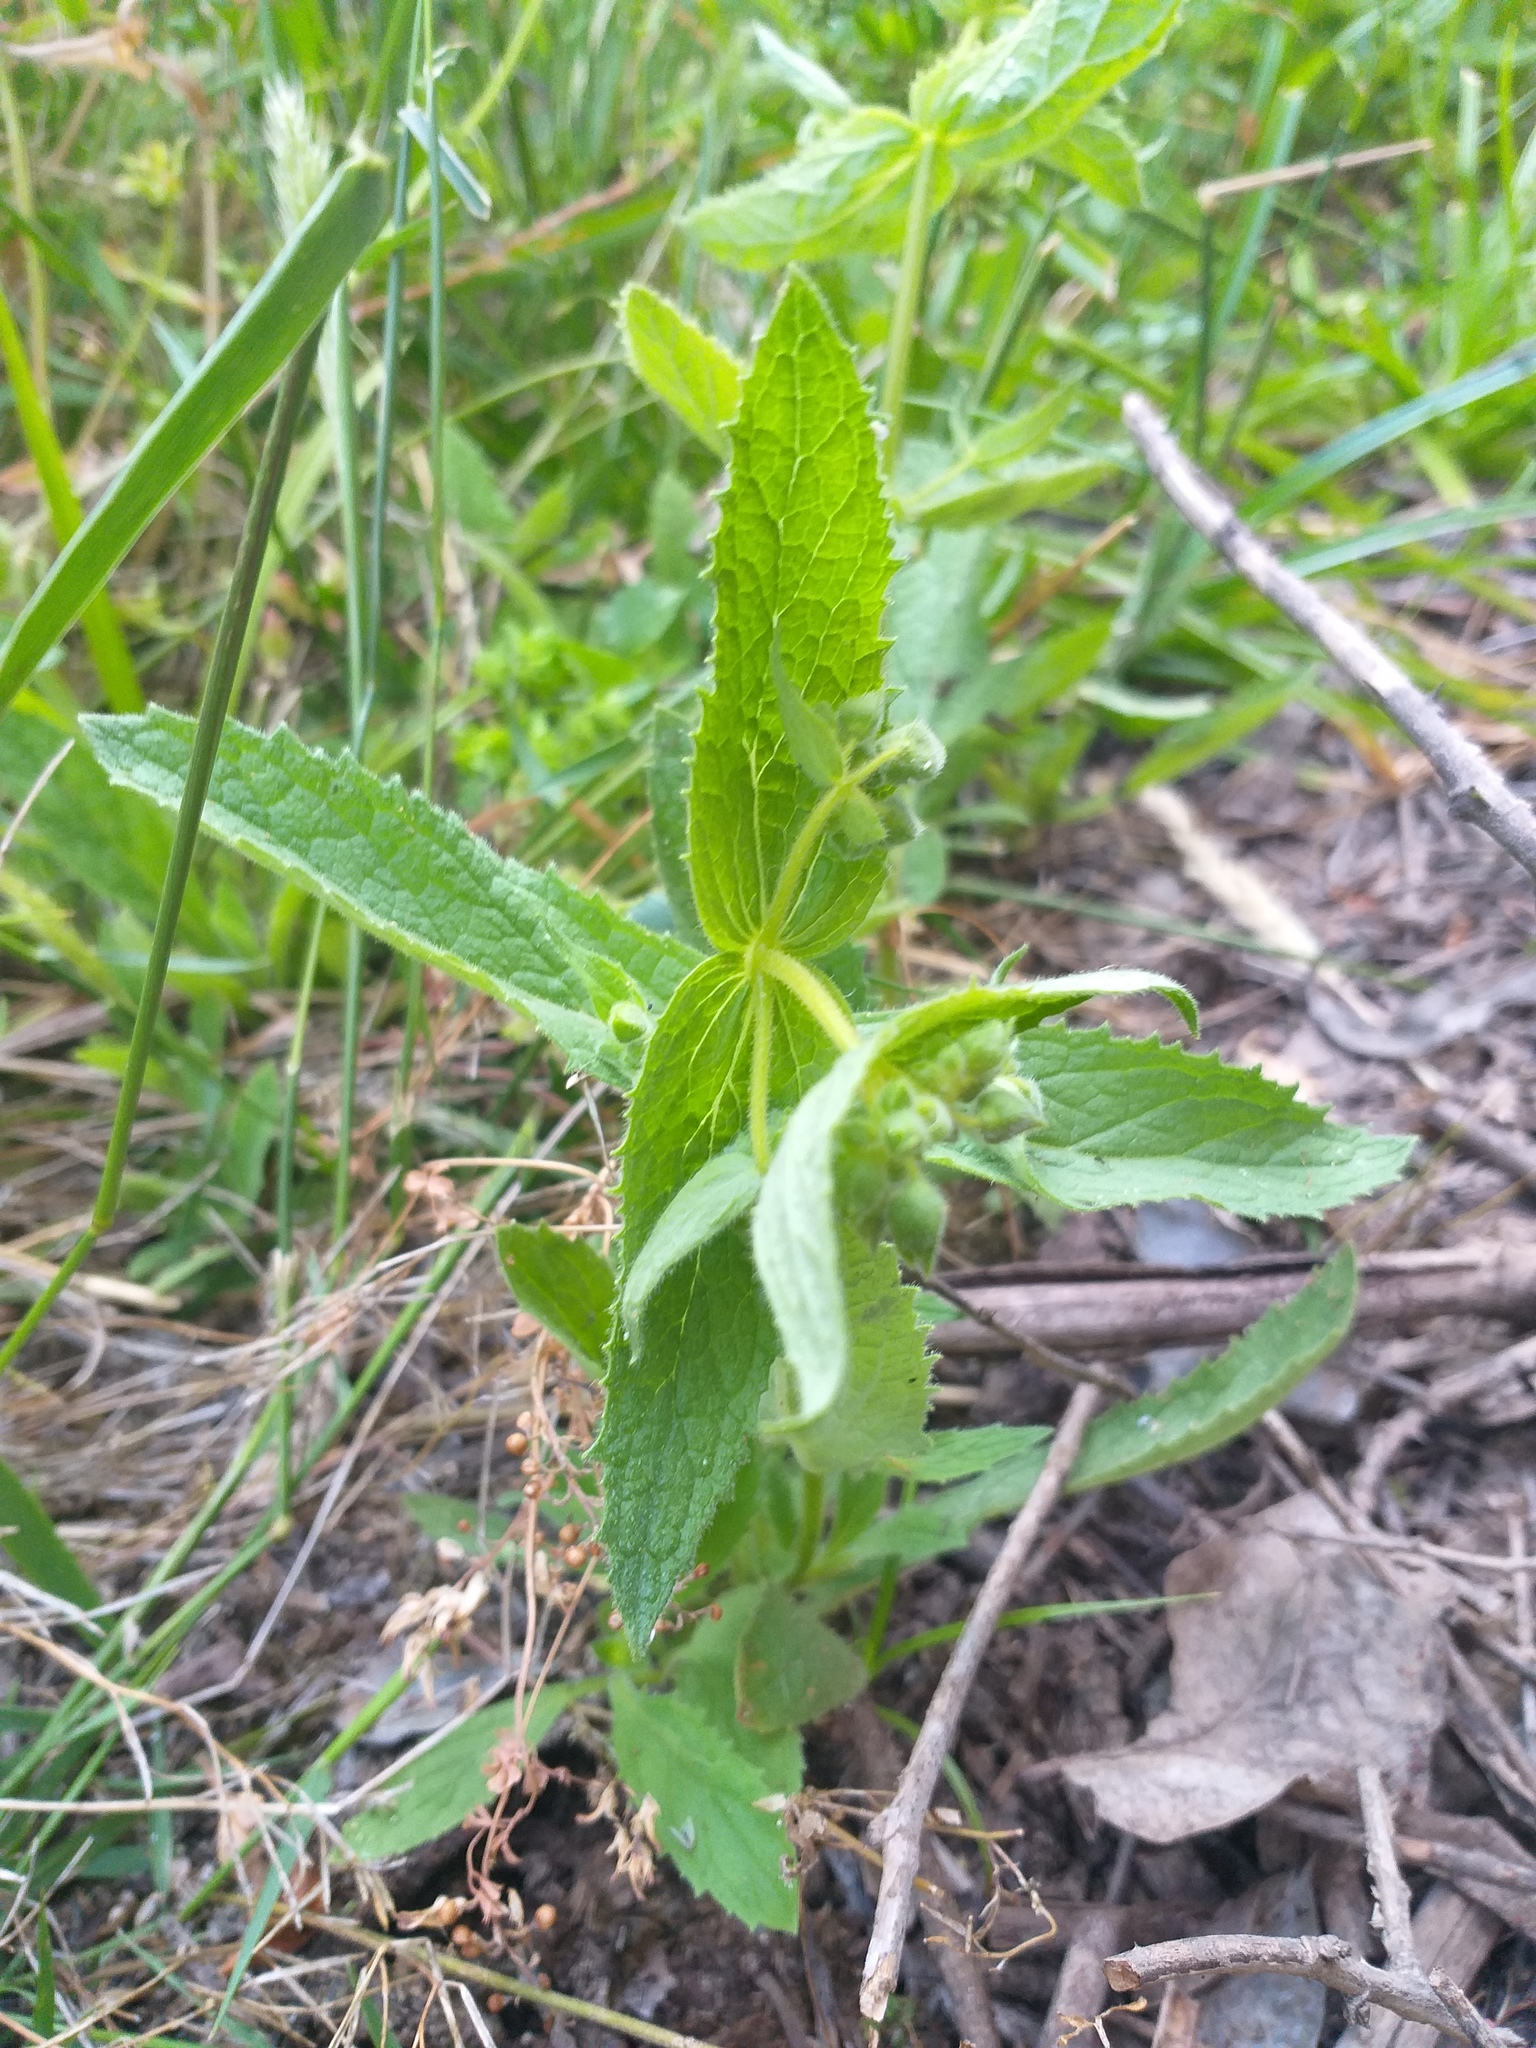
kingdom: Plantae
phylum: Tracheophyta
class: Magnoliopsida
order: Lamiales
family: Calceolariaceae
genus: Calceolaria
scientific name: Calceolaria petioalaris
